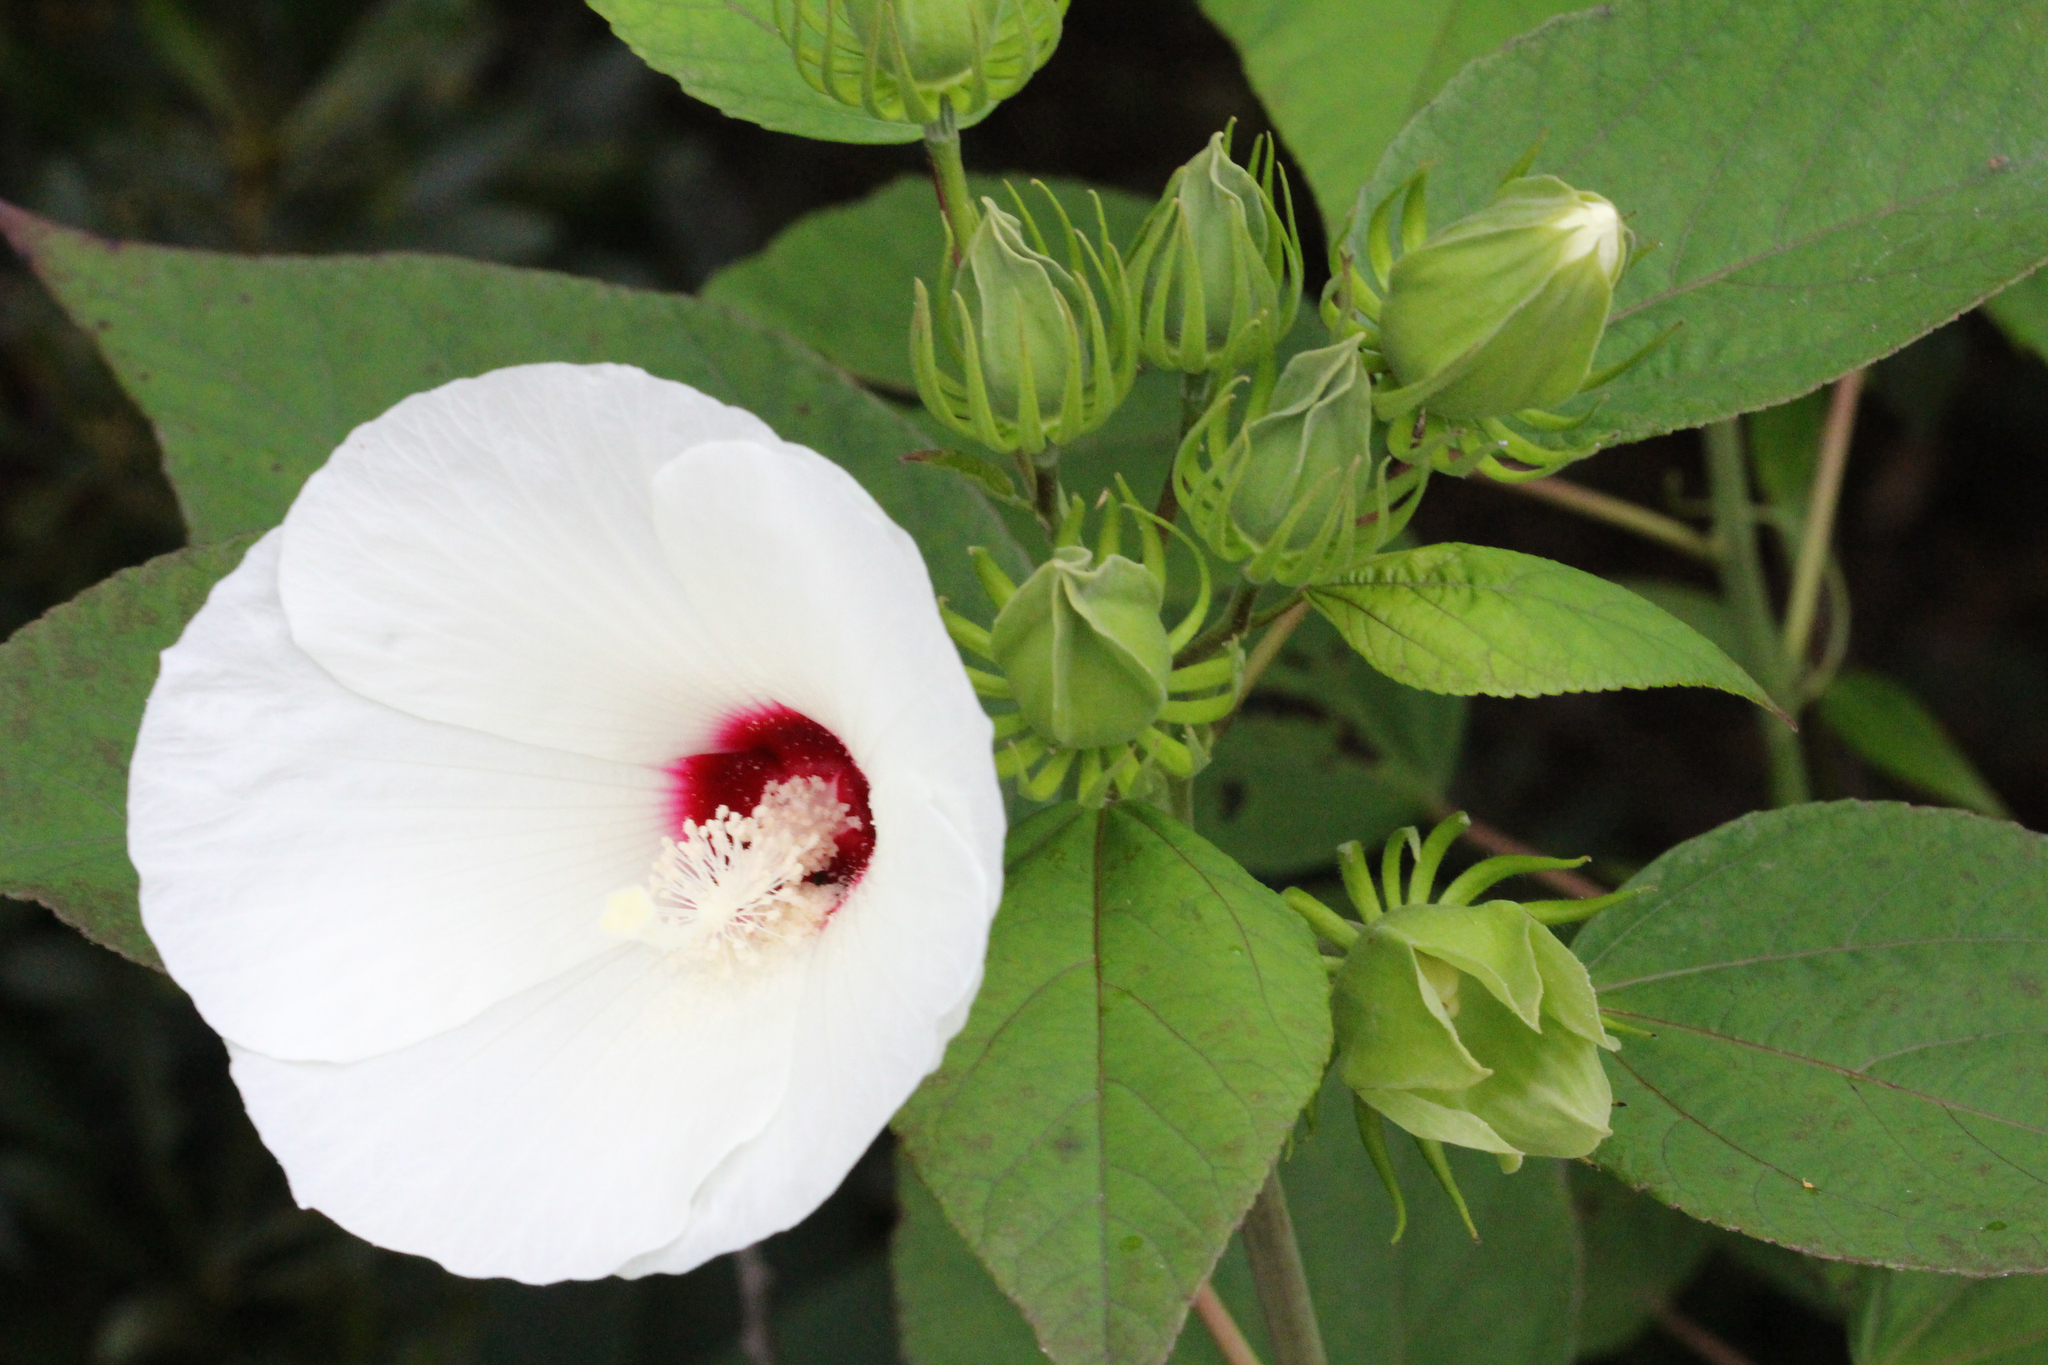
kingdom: Plantae
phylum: Tracheophyta
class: Magnoliopsida
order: Malvales
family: Malvaceae
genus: Hibiscus
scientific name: Hibiscus moscheutos
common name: Common rose-mallow
